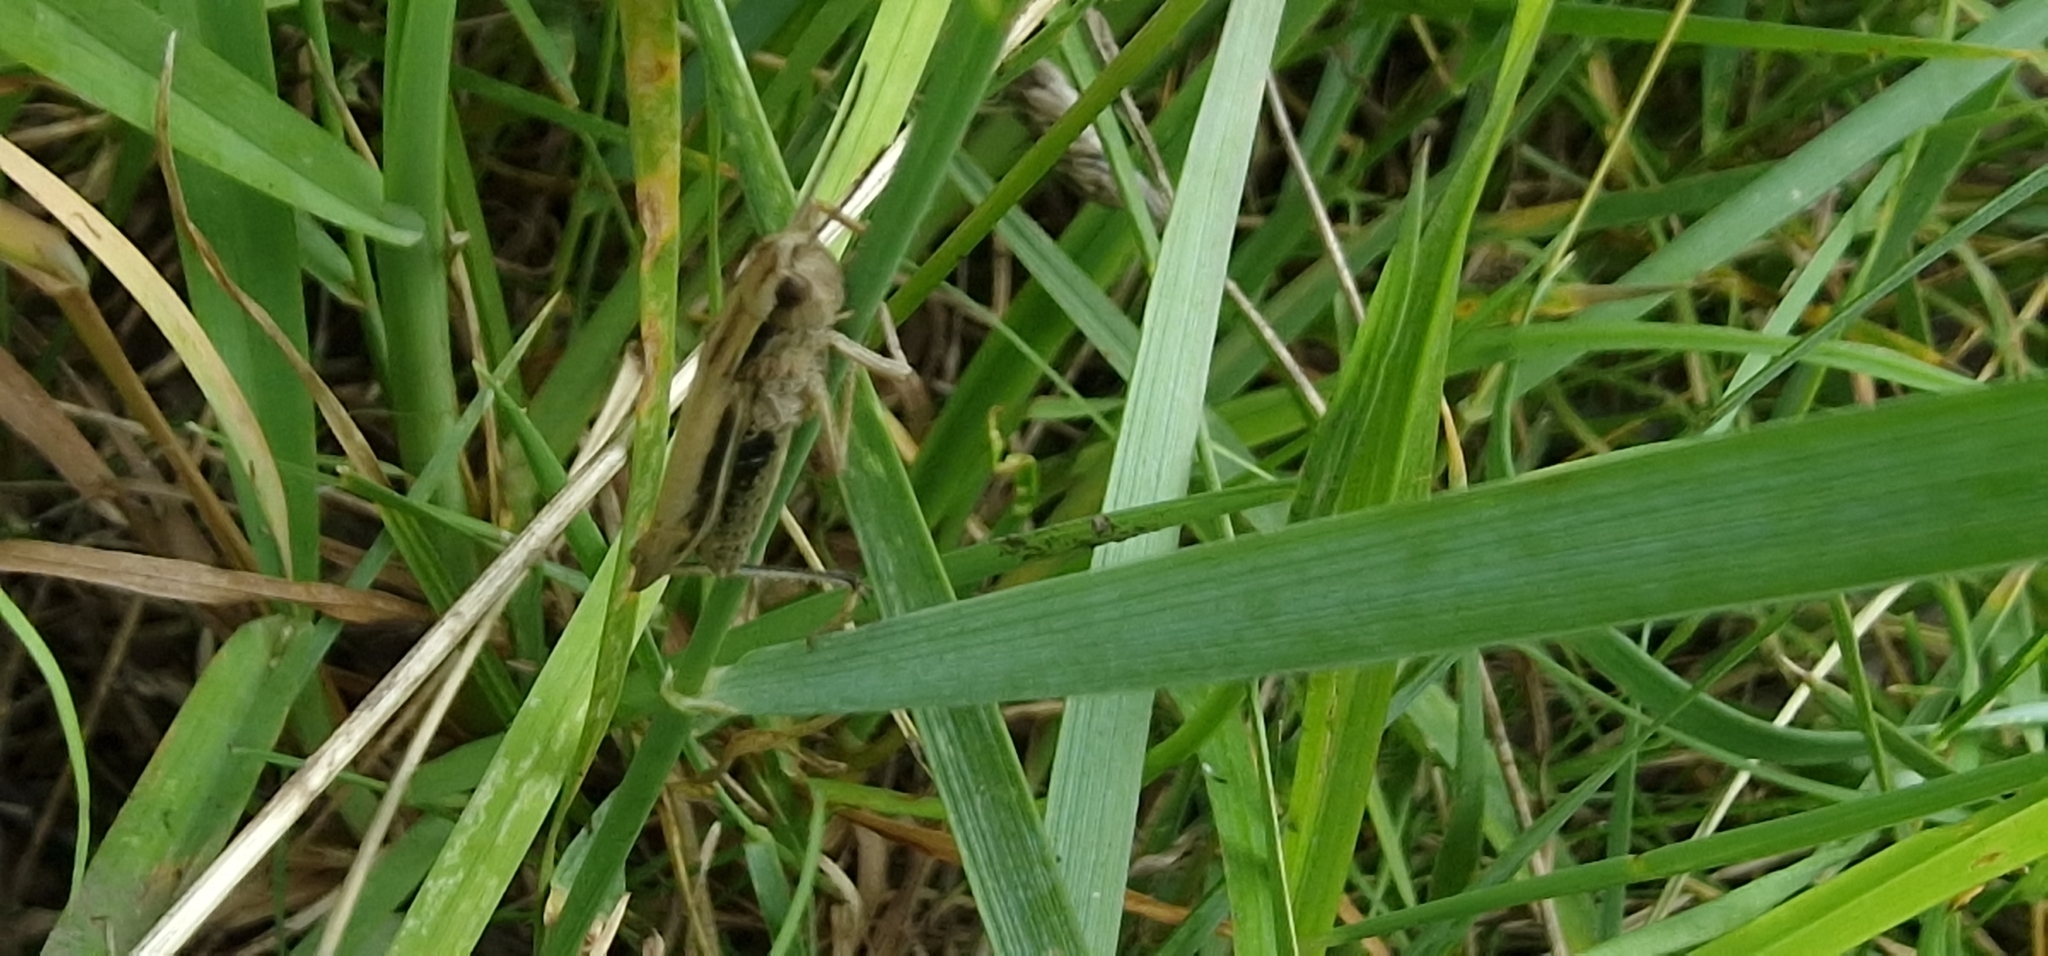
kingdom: Animalia
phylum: Arthropoda
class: Insecta
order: Orthoptera
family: Acrididae
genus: Chorthippus
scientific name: Chorthippus albomarginatus
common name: Lesser marsh grasshopper
